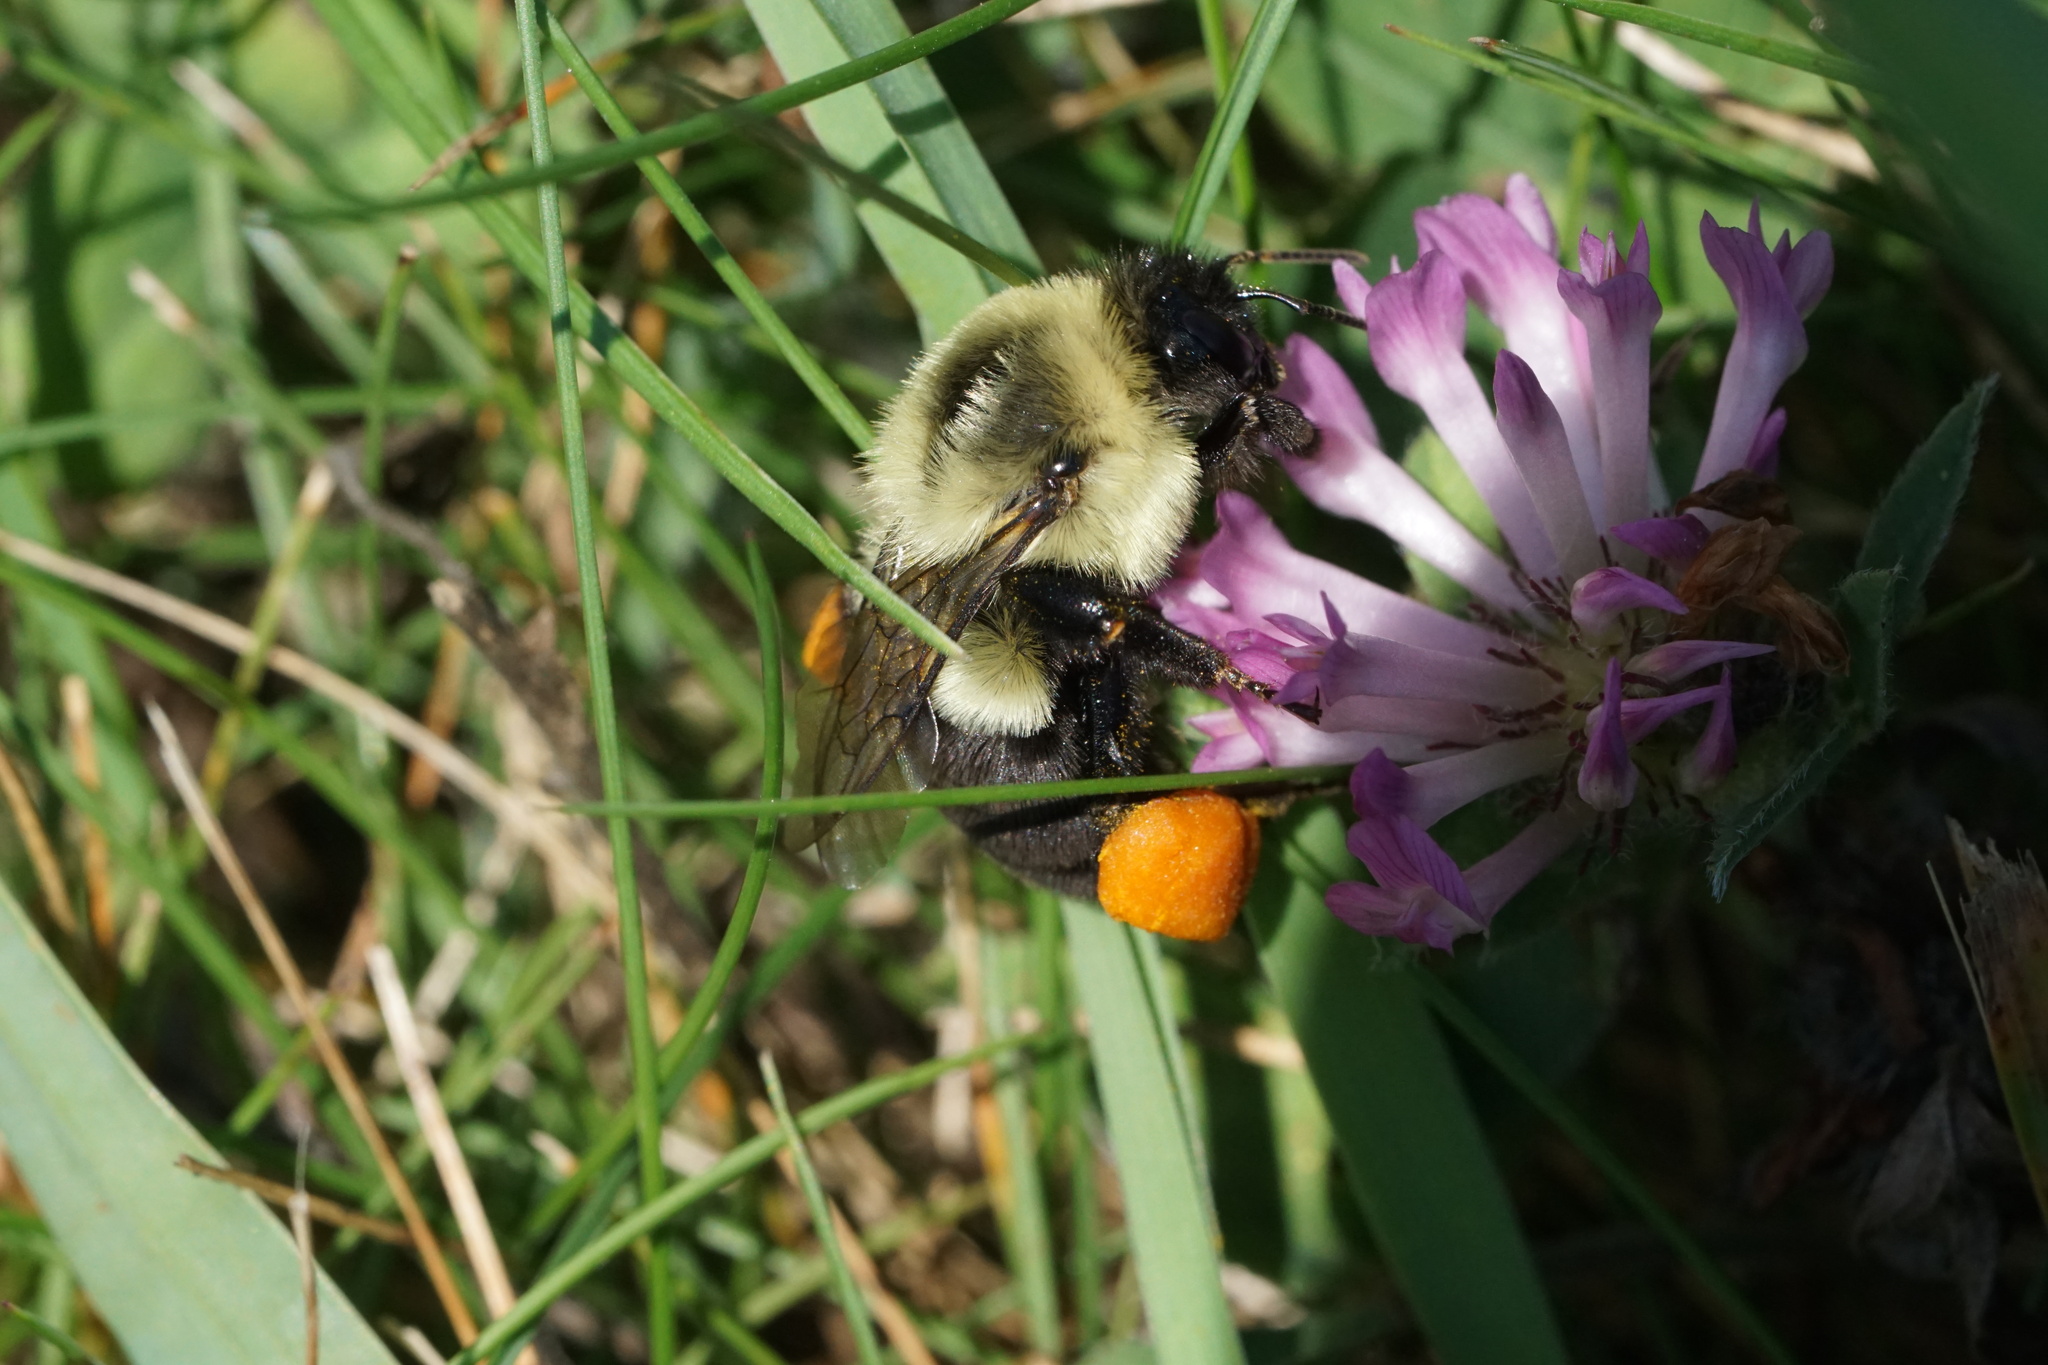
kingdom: Animalia
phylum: Arthropoda
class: Insecta
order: Hymenoptera
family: Apidae
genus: Bombus
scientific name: Bombus impatiens
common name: Common eastern bumble bee
